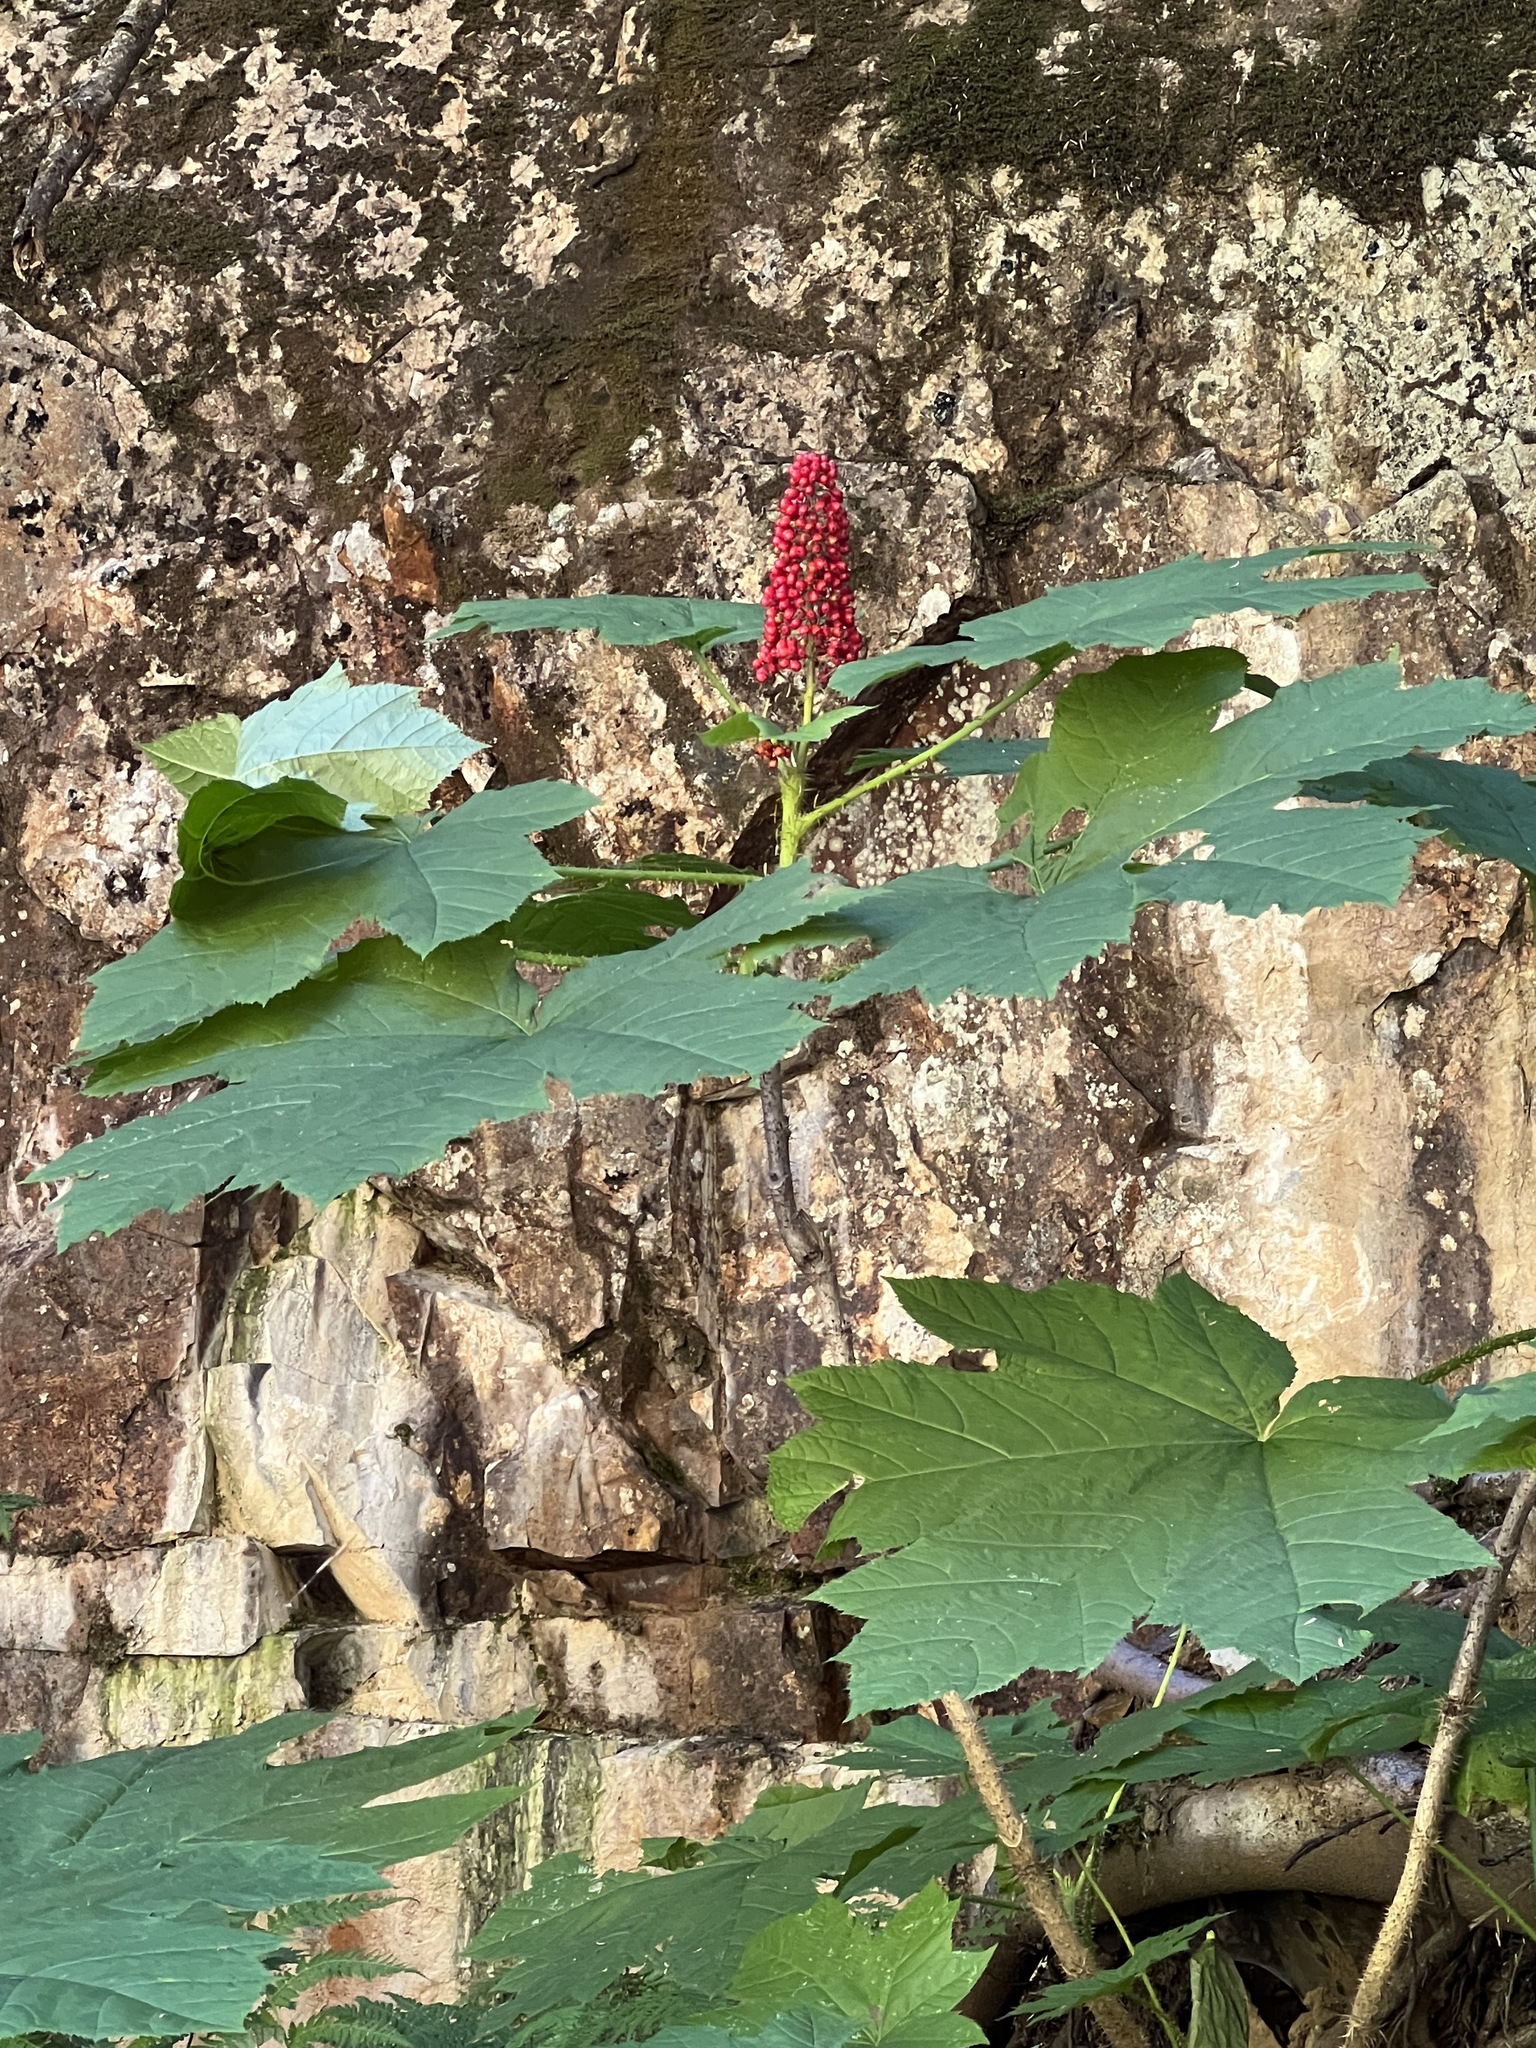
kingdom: Plantae
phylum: Tracheophyta
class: Magnoliopsida
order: Apiales
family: Araliaceae
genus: Oplopanax
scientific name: Oplopanax horridus
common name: Devil's walking-stick
